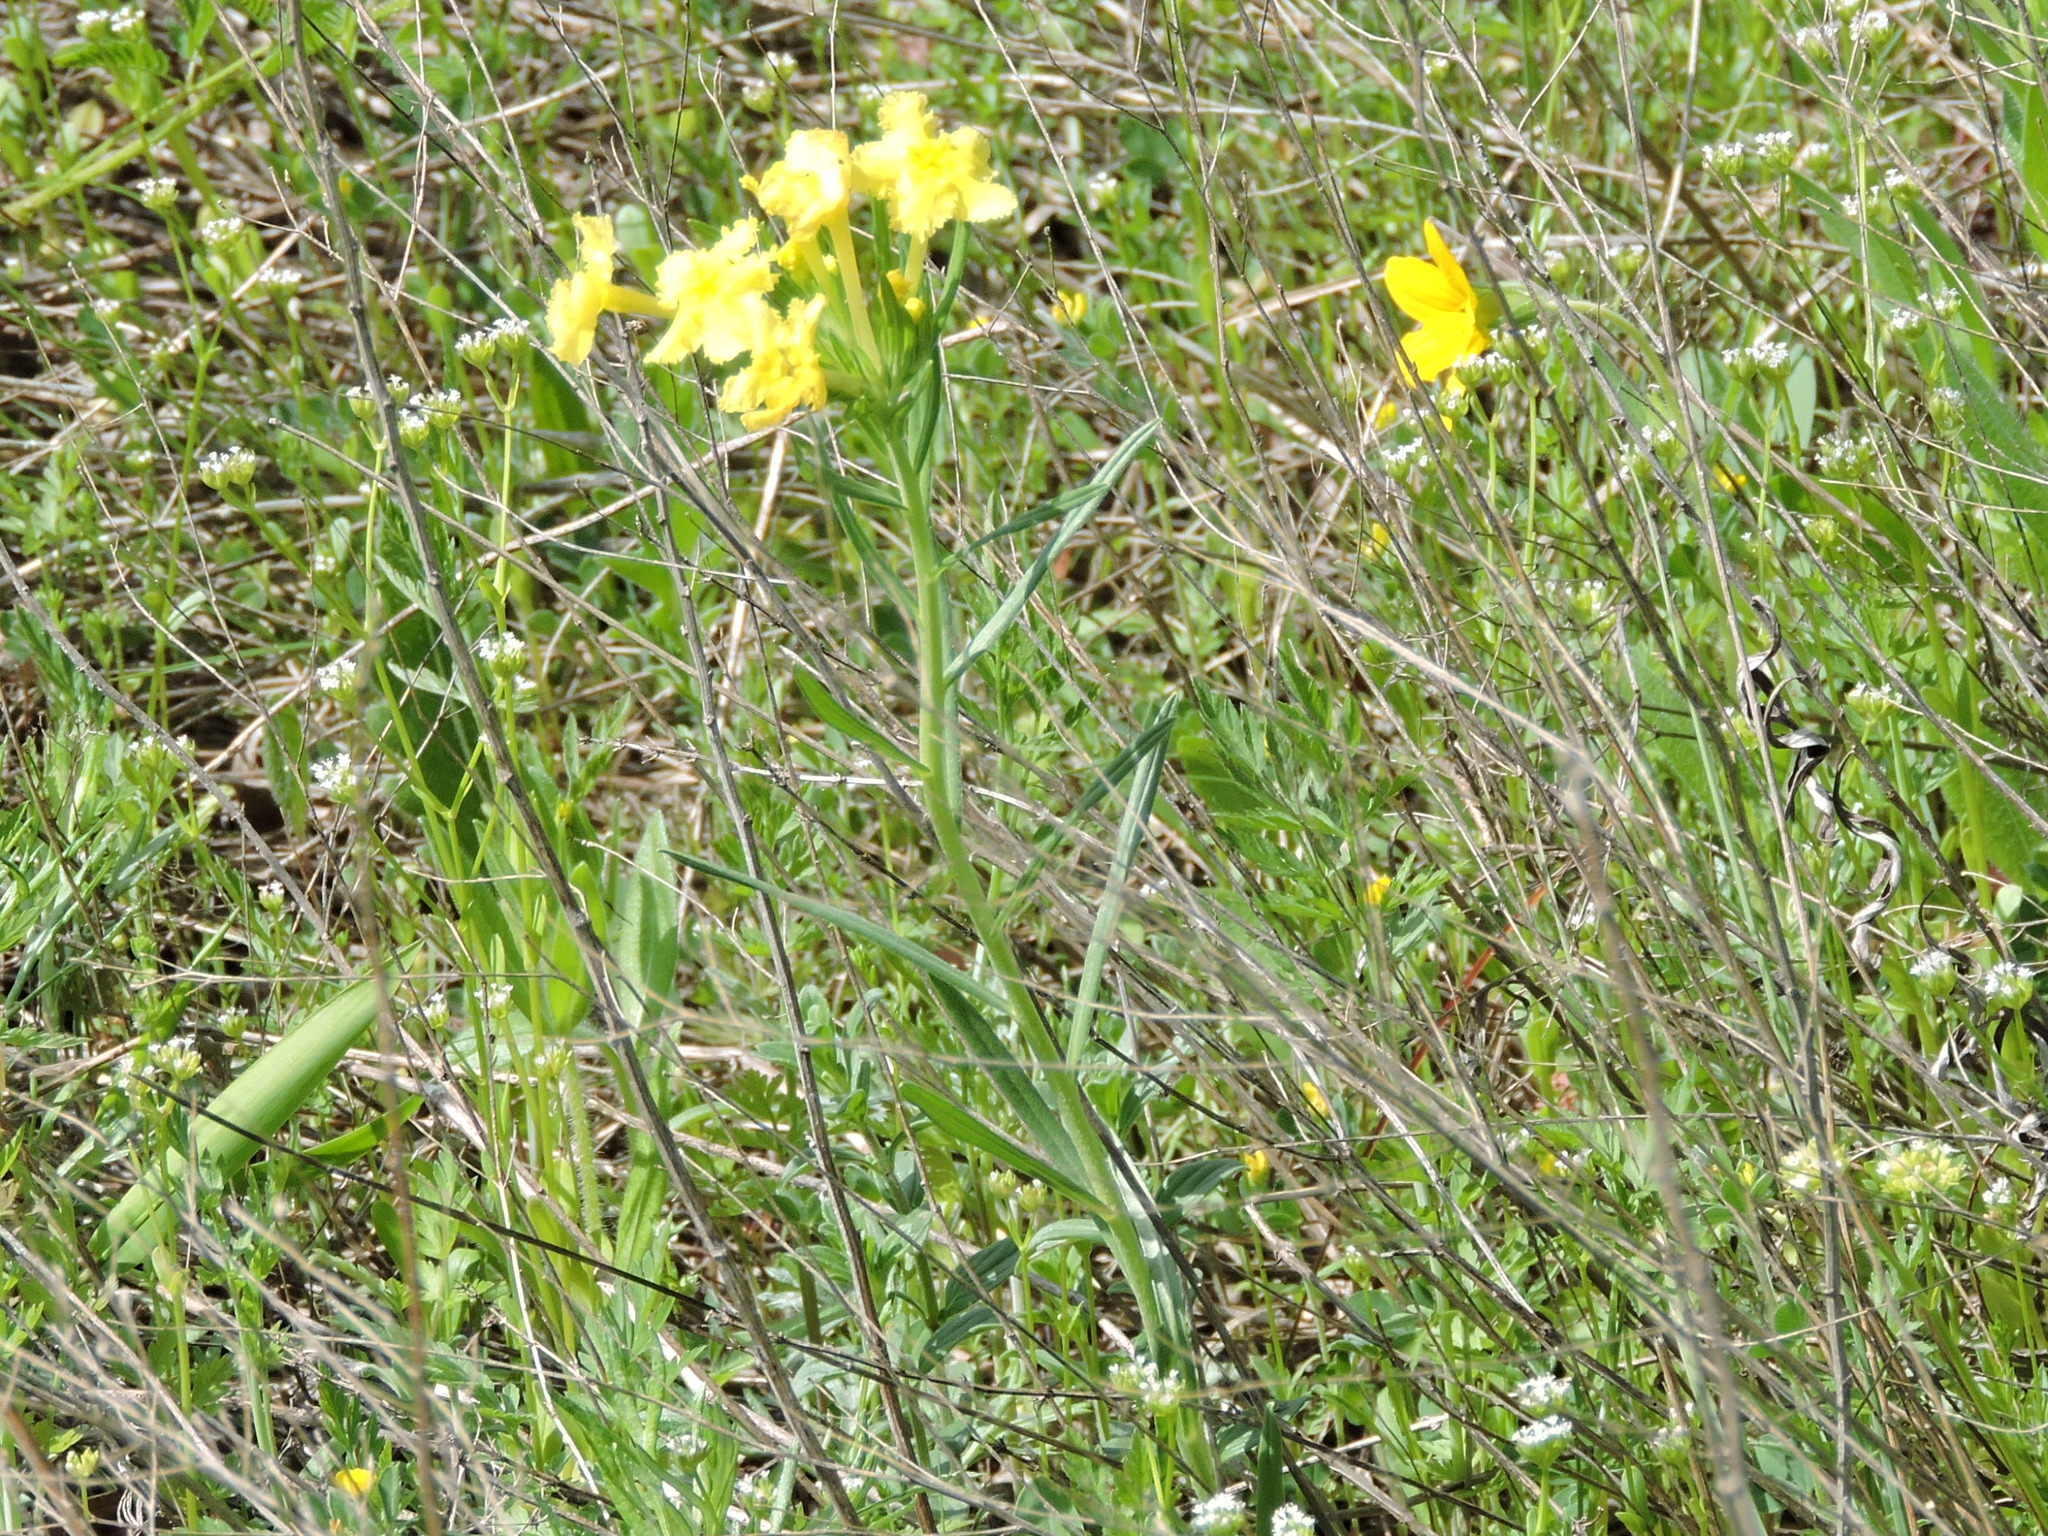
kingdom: Plantae
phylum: Tracheophyta
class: Magnoliopsida
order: Boraginales
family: Boraginaceae
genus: Lithospermum
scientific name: Lithospermum incisum
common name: Fringed gromwell
